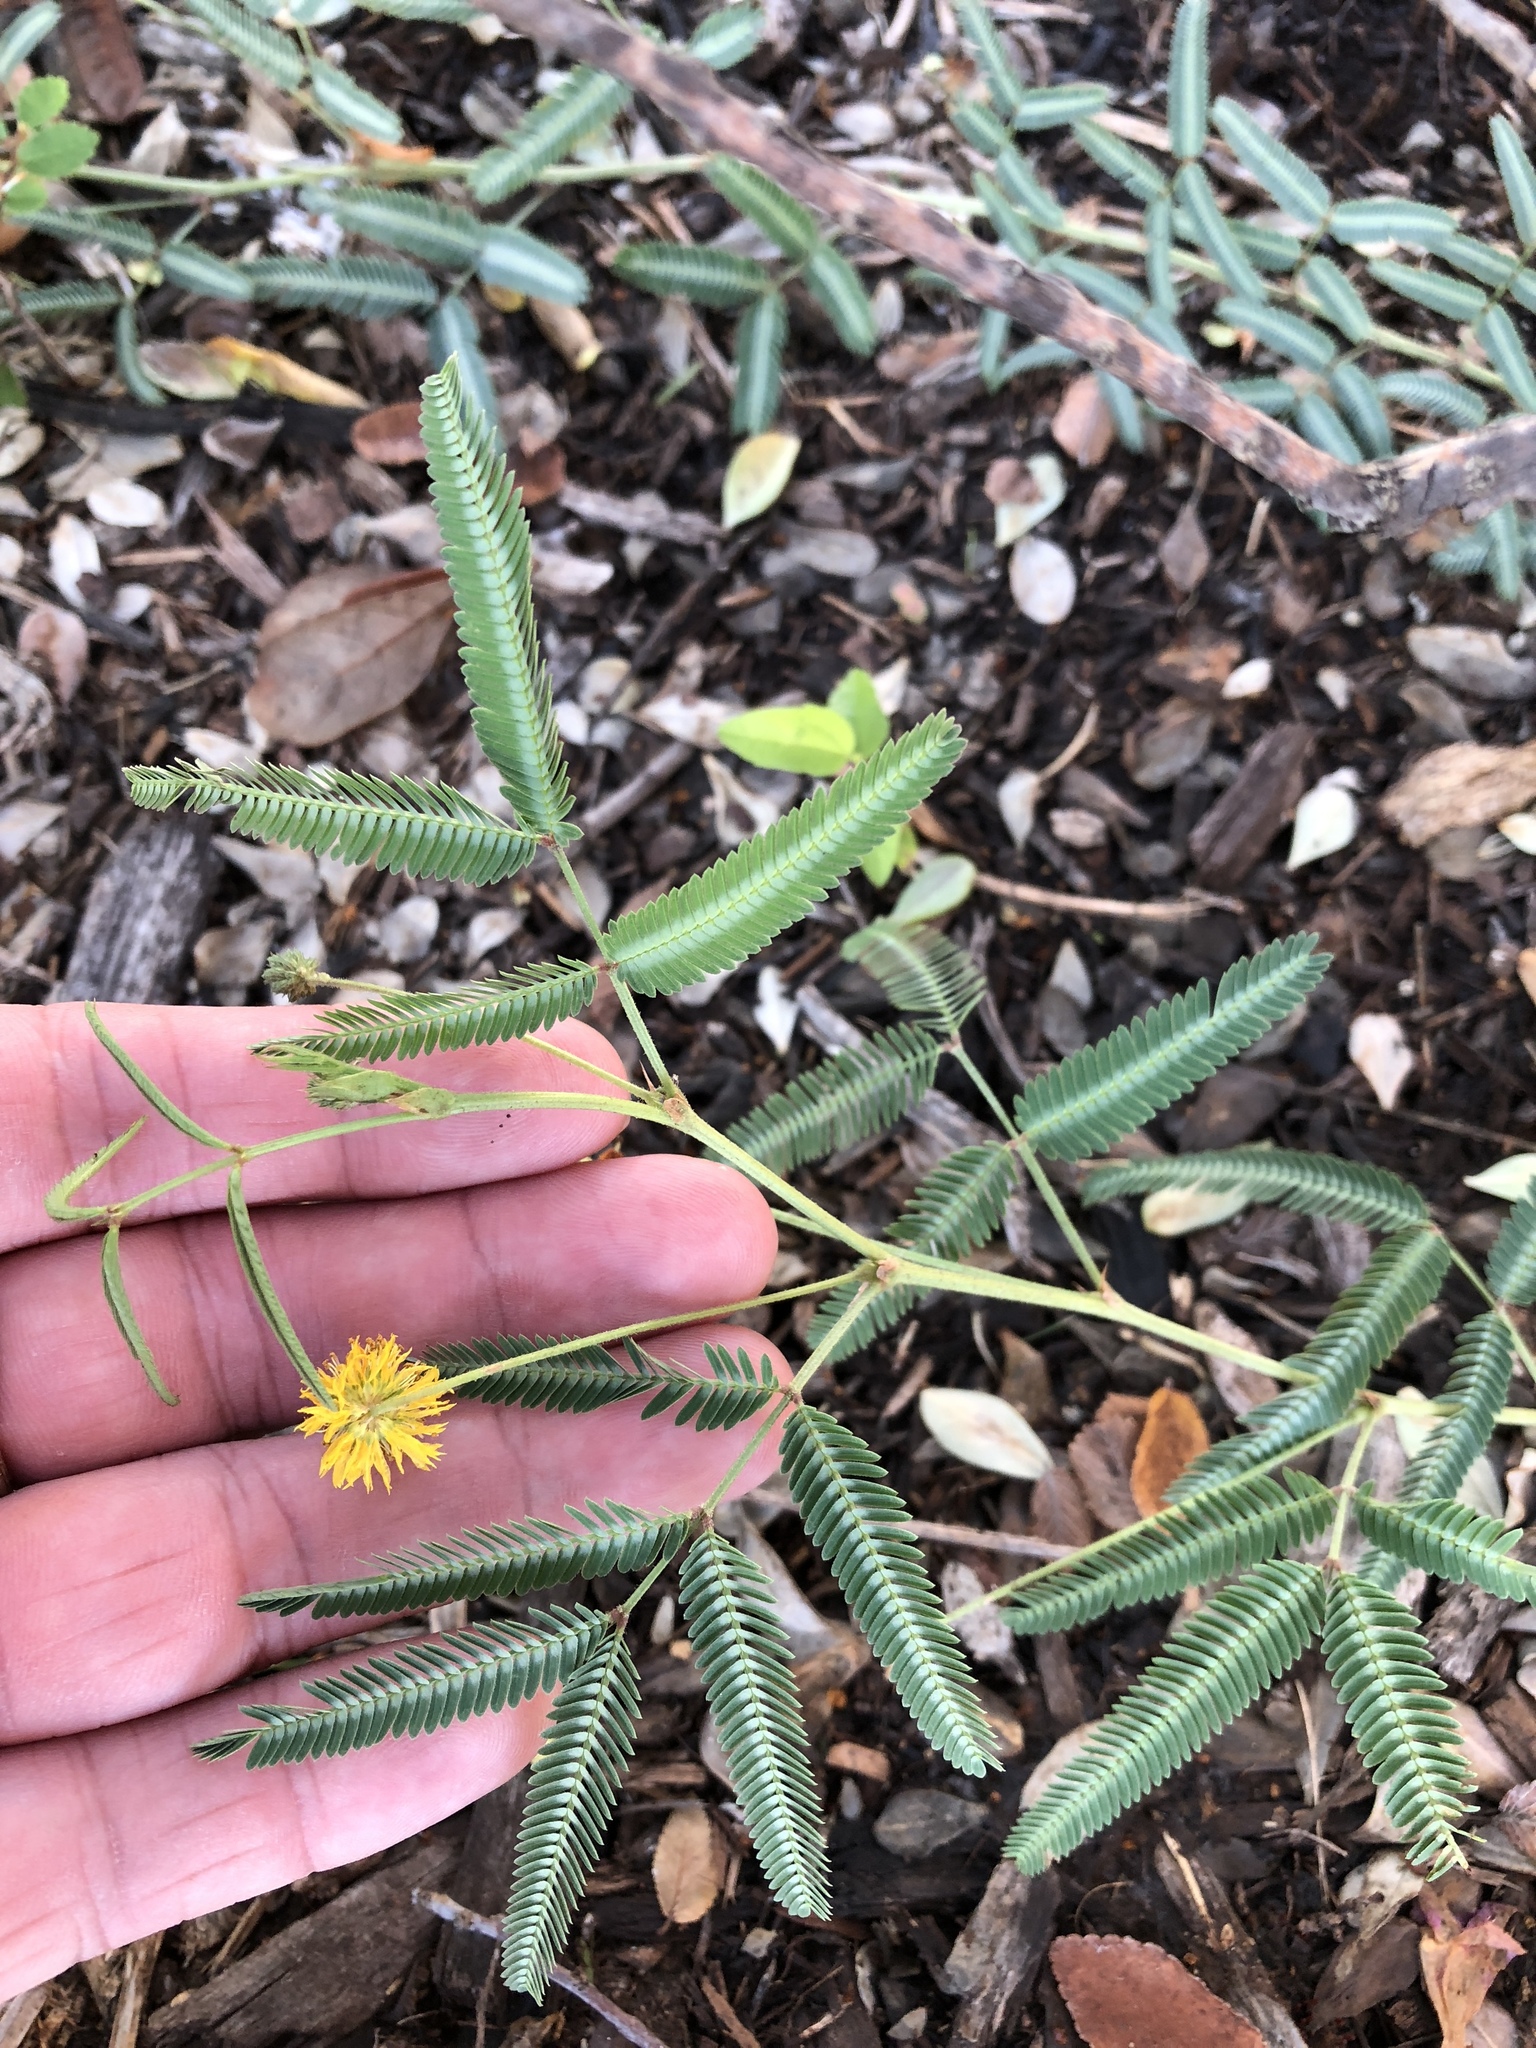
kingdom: Plantae
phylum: Tracheophyta
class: Magnoliopsida
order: Fabales
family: Fabaceae
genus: Neptunia
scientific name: Neptunia pubescens
